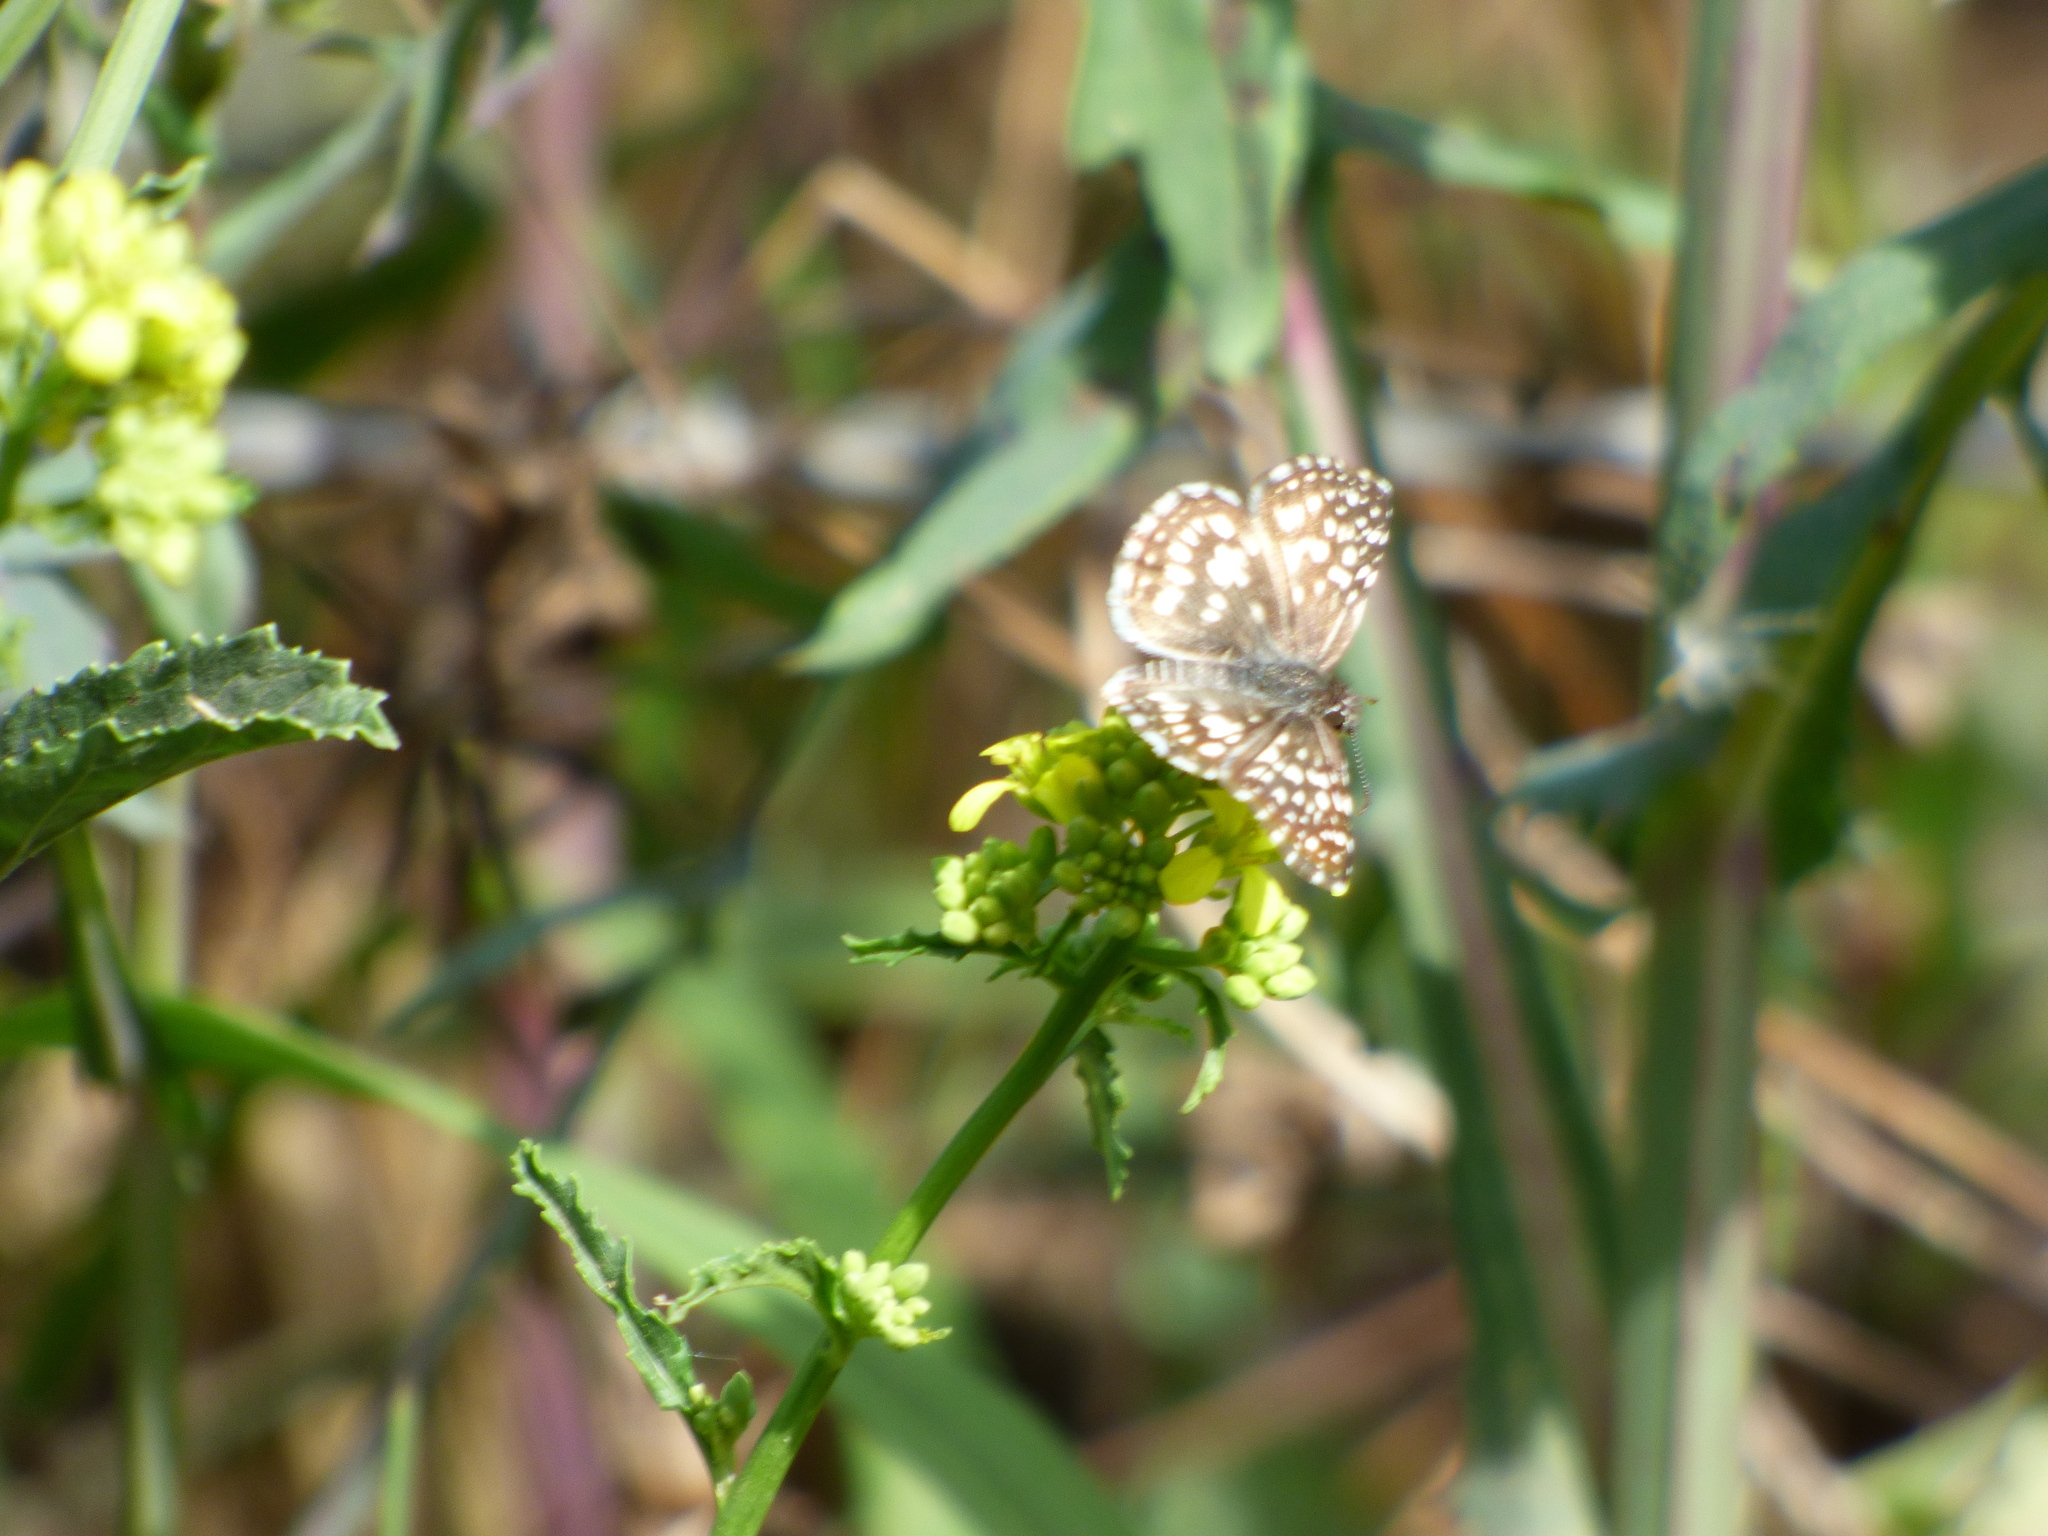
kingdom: Animalia
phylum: Arthropoda
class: Insecta
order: Lepidoptera
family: Hesperiidae
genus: Pyrgus
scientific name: Pyrgus oileus
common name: Tropical checkered-skipper
